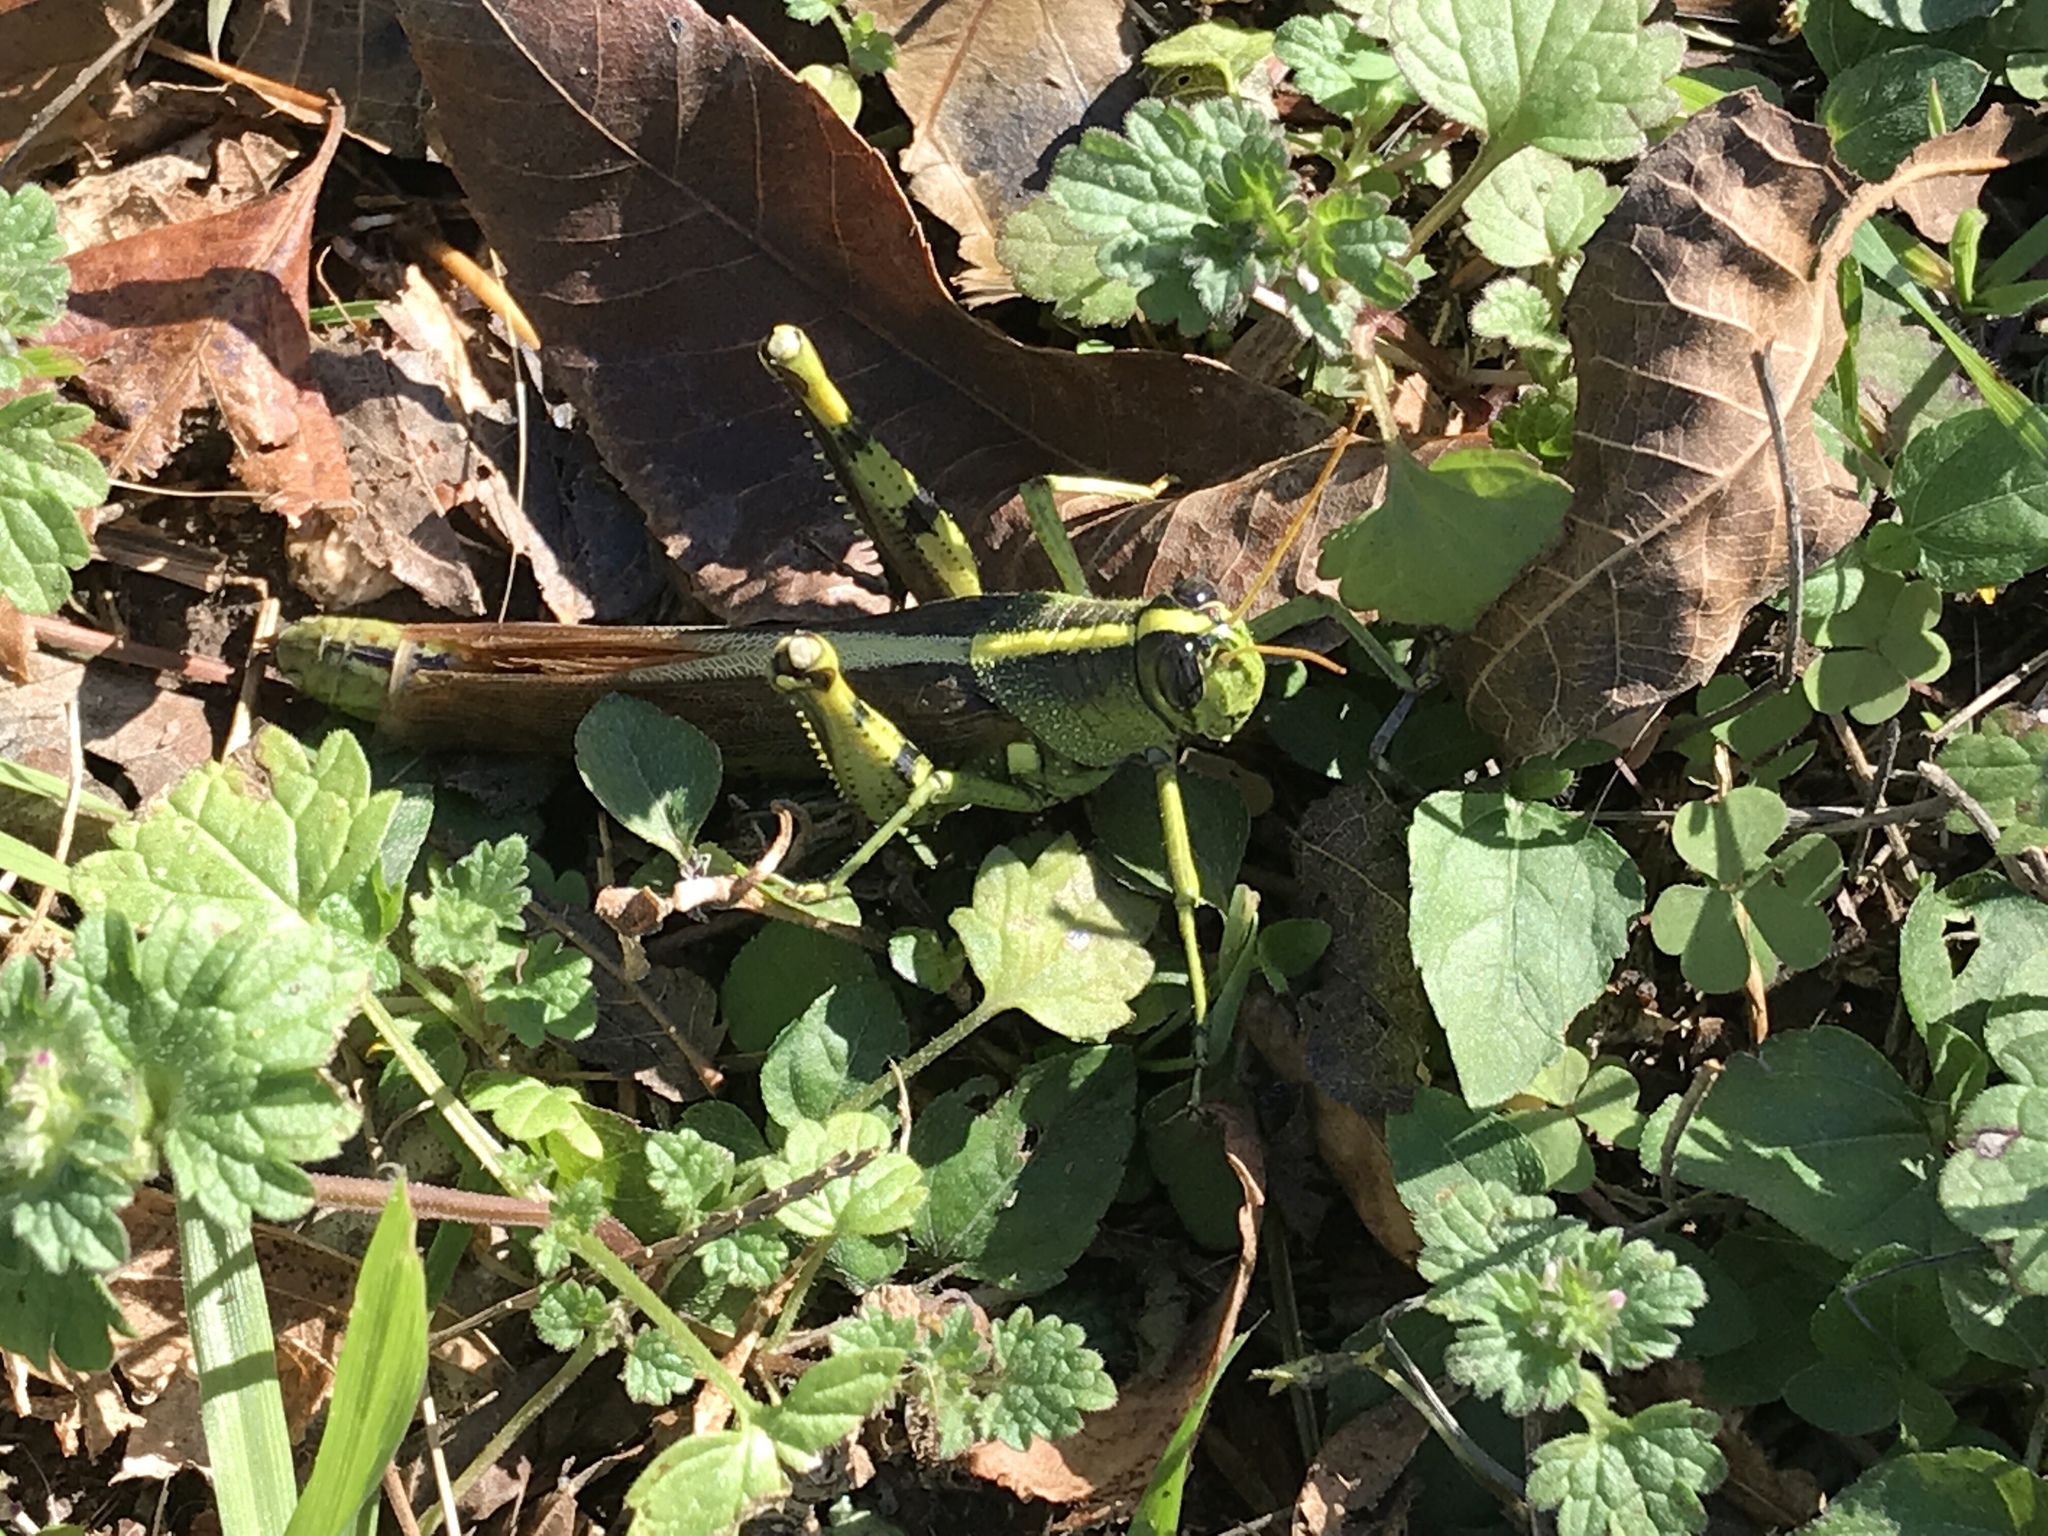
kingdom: Animalia
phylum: Arthropoda
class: Insecta
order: Orthoptera
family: Acrididae
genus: Schistocerca
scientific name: Schistocerca obscura
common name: Obscure bird grasshopper
